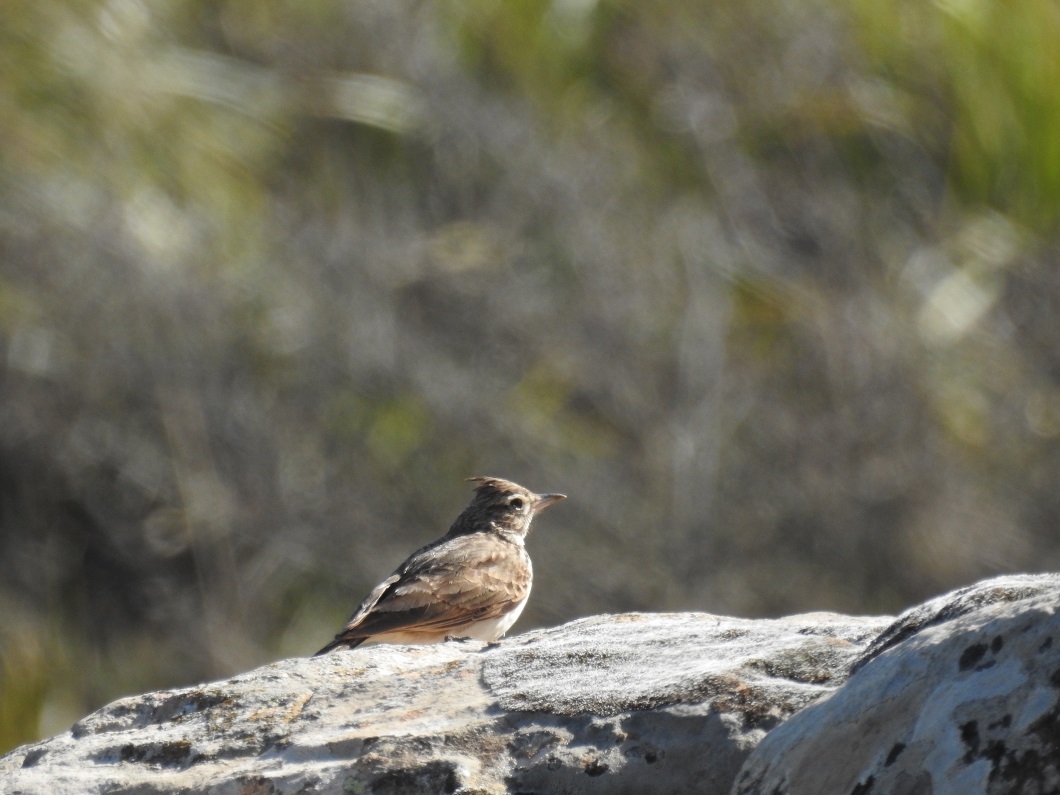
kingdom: Animalia
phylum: Chordata
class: Aves
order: Passeriformes
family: Alaudidae
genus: Galerida
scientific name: Galerida cristata
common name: Crested lark
